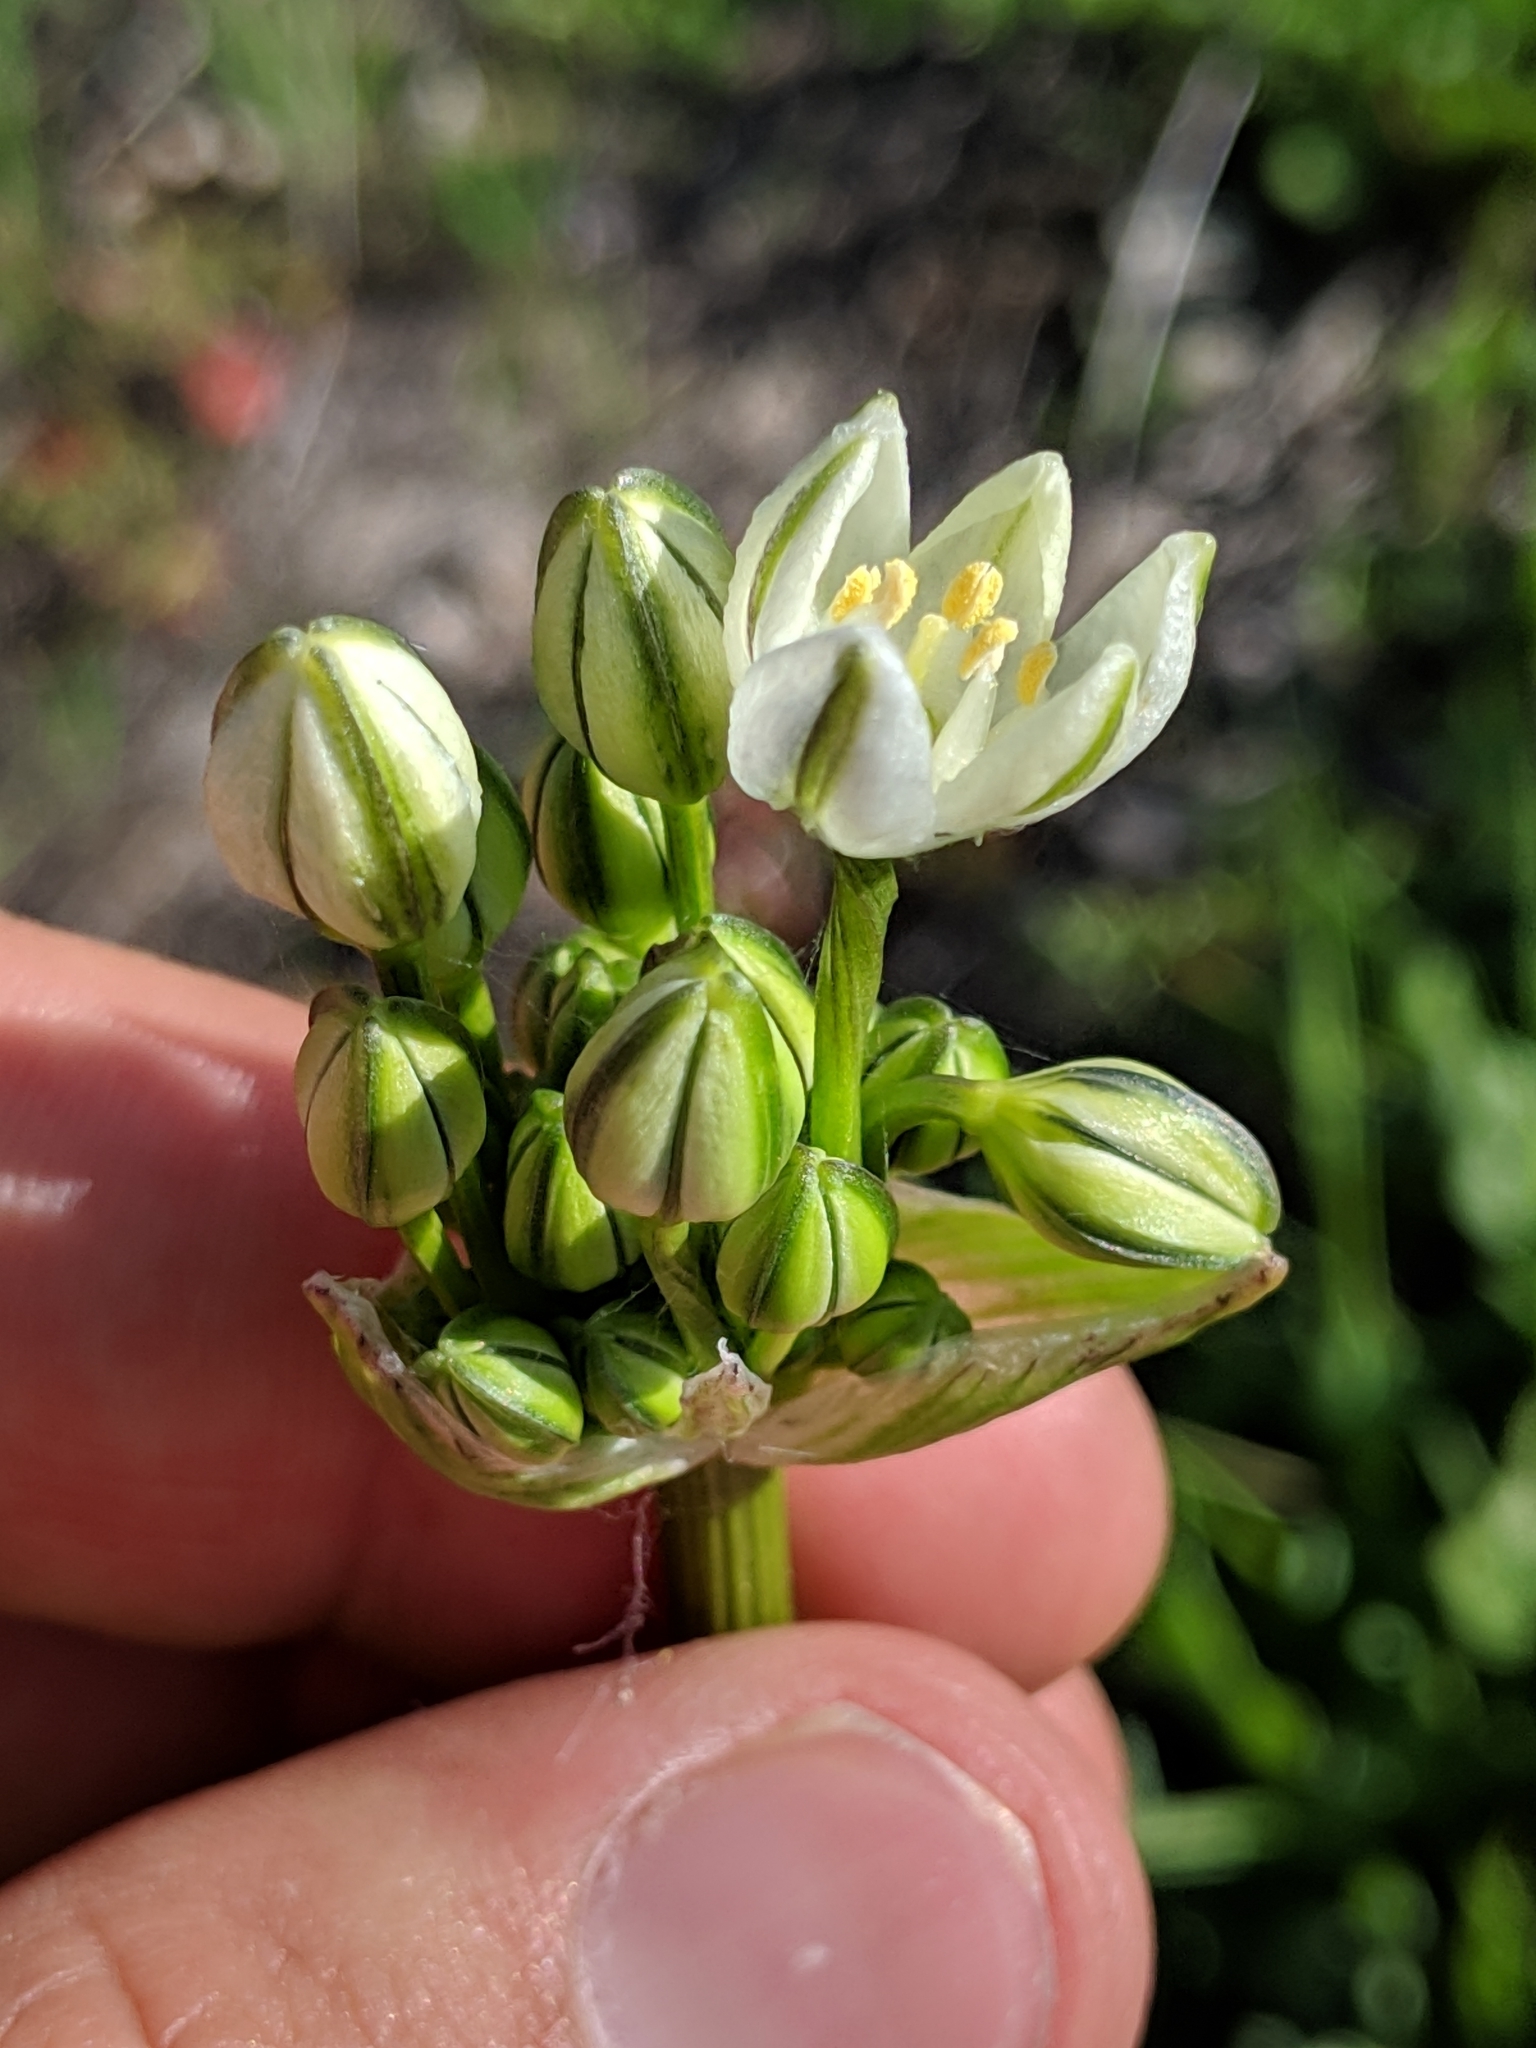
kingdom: Plantae
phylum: Tracheophyta
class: Liliopsida
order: Asparagales
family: Asparagaceae
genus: Triteleia
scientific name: Triteleia hyacinthina
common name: White brodiaea
